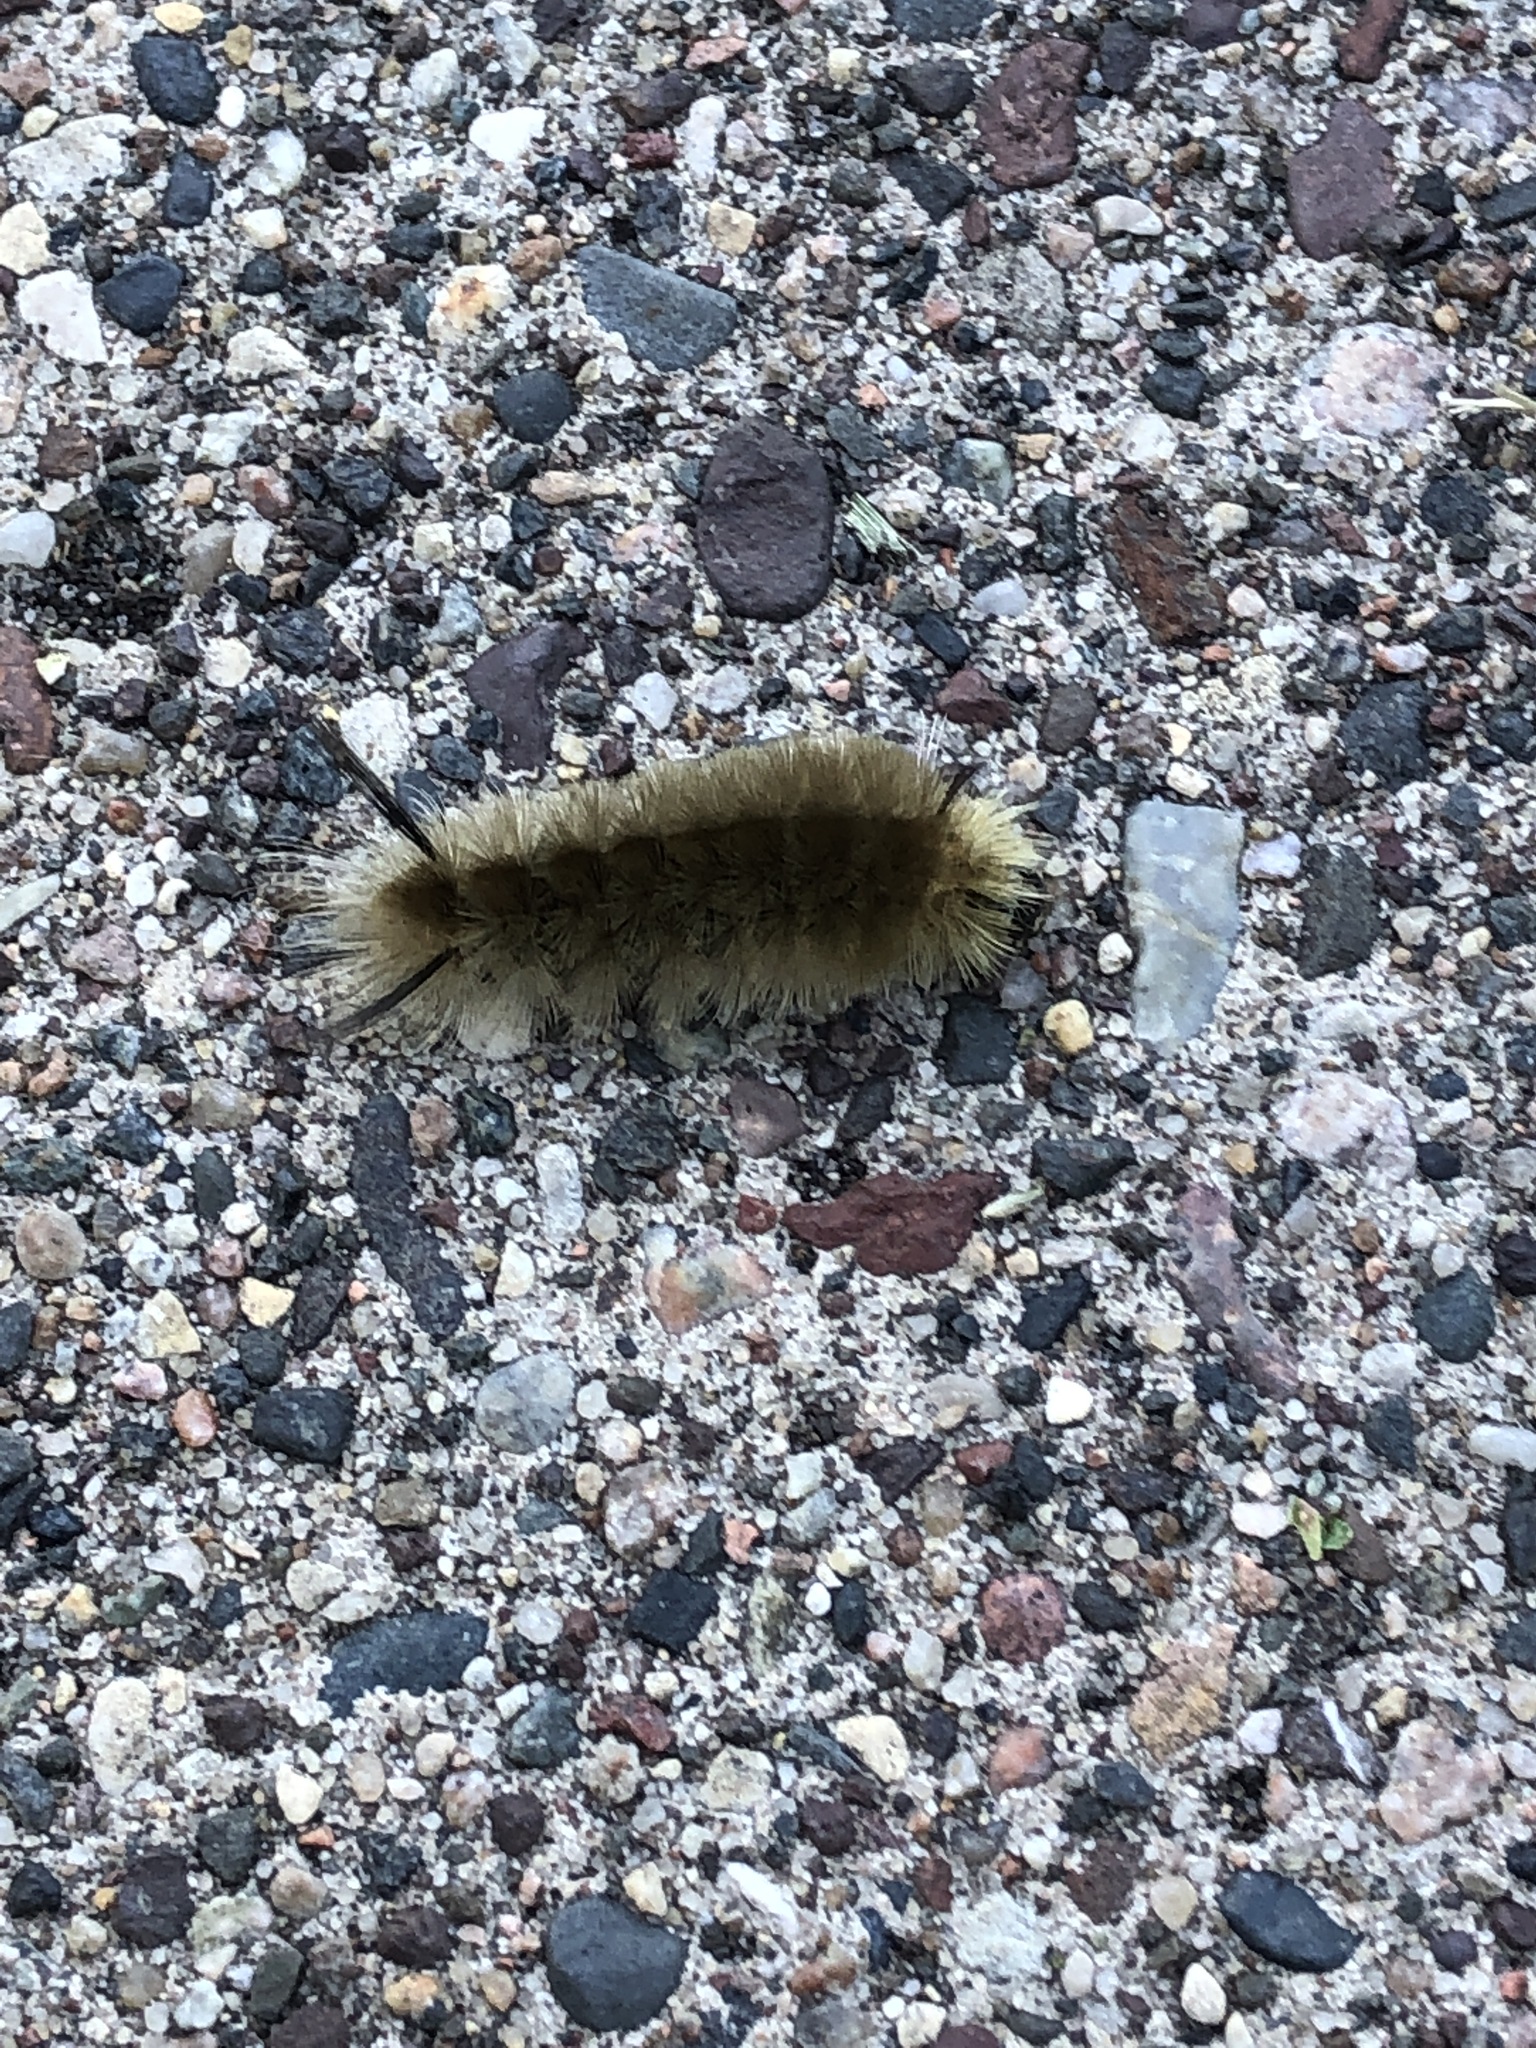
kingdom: Animalia
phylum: Arthropoda
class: Insecta
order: Lepidoptera
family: Erebidae
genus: Halysidota
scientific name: Halysidota tessellaris
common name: Banded tussock moth
